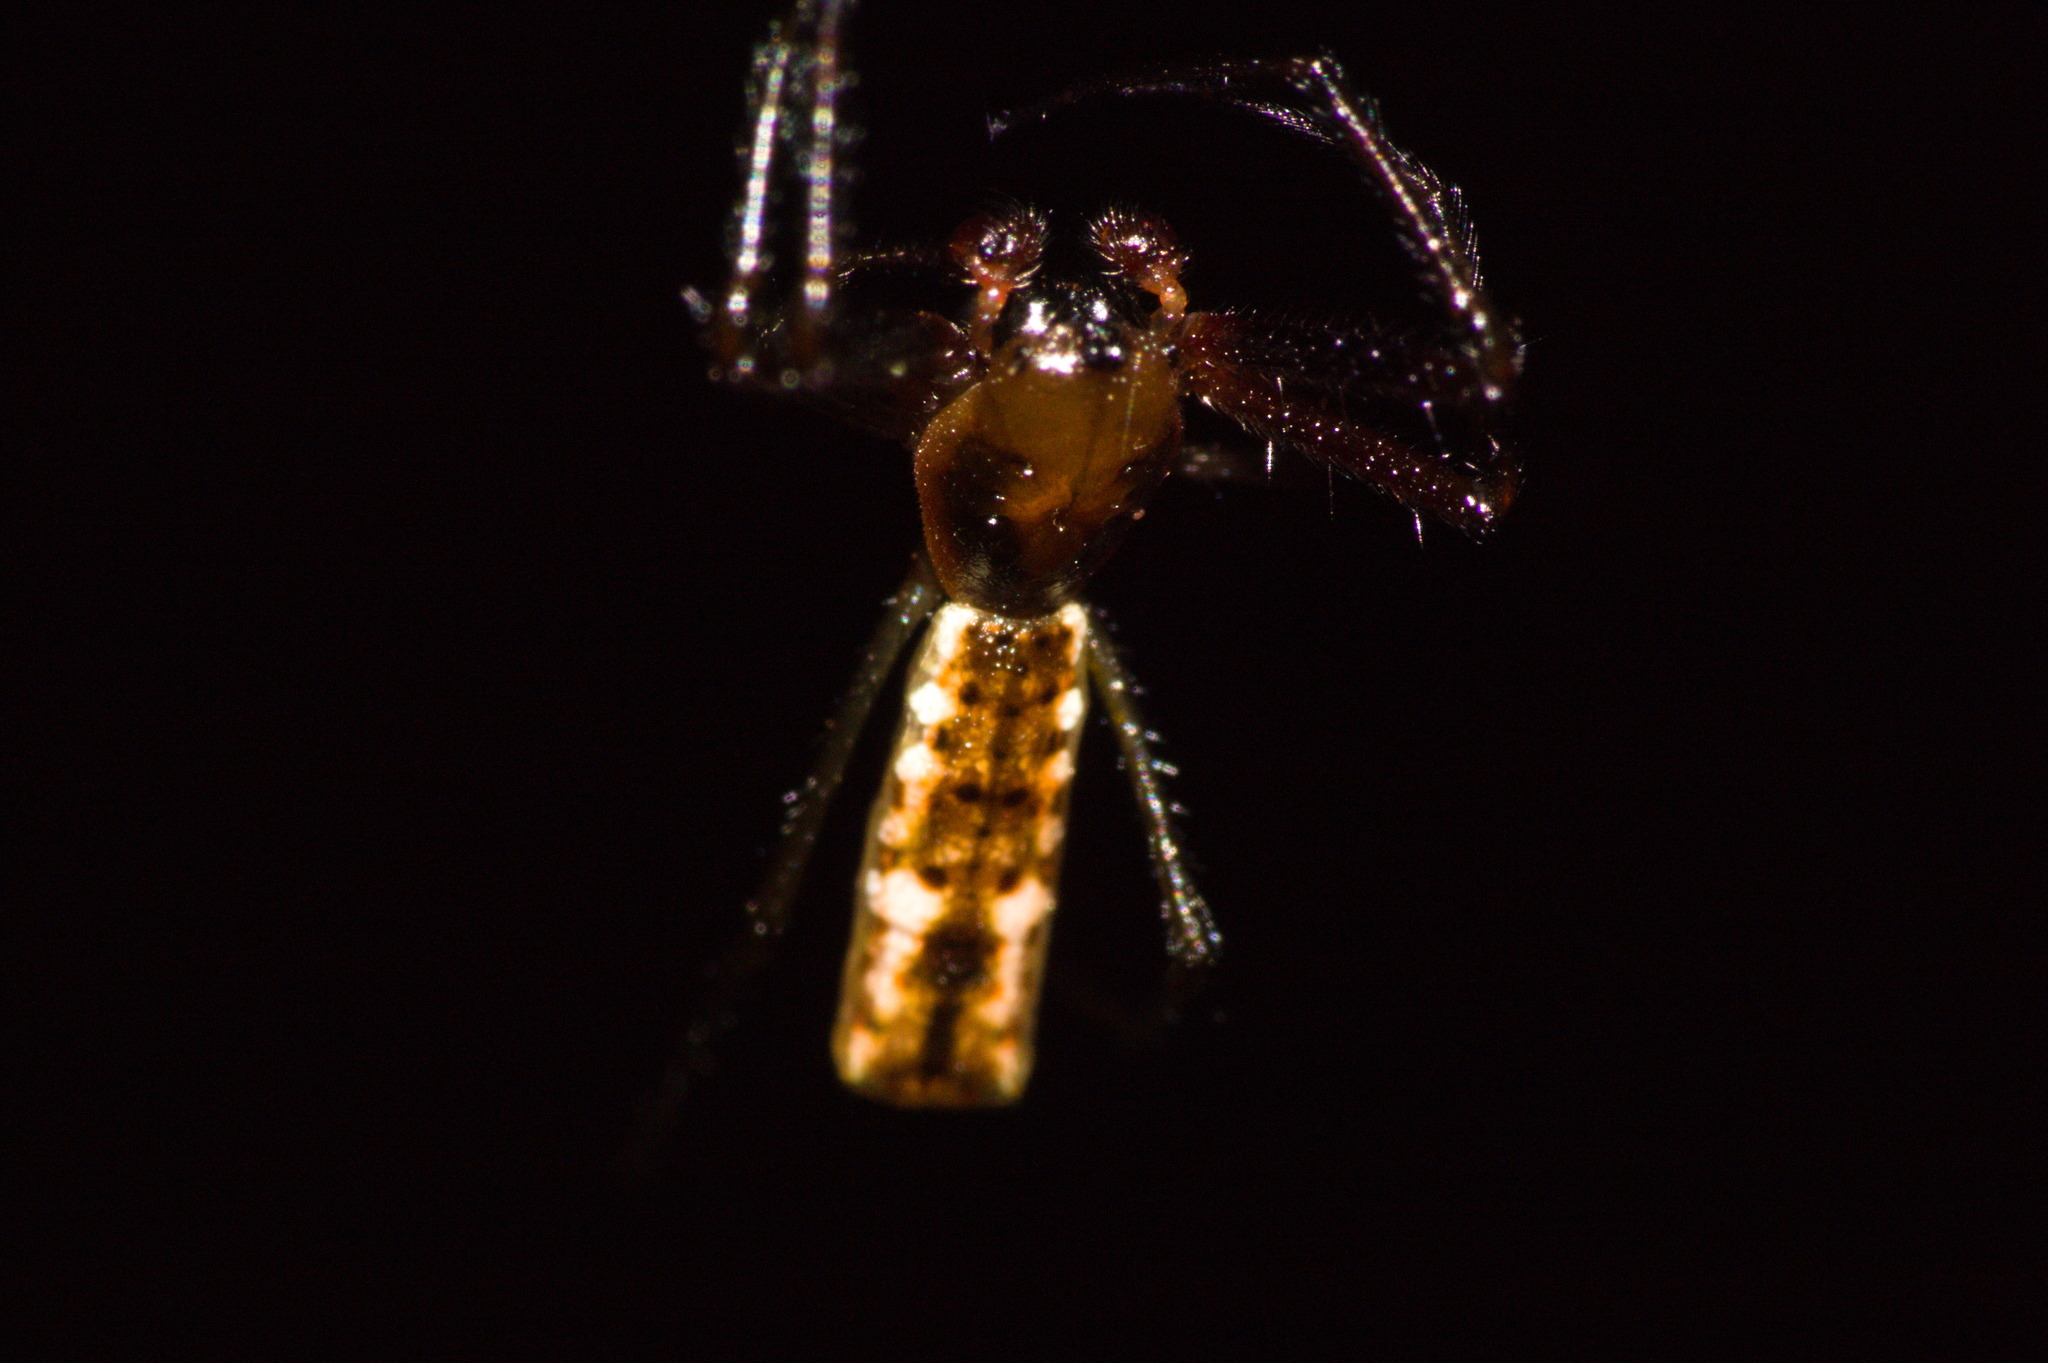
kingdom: Animalia
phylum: Arthropoda
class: Arachnida
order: Araneae
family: Araneidae
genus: Micrathena
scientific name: Micrathena nigrichelis
